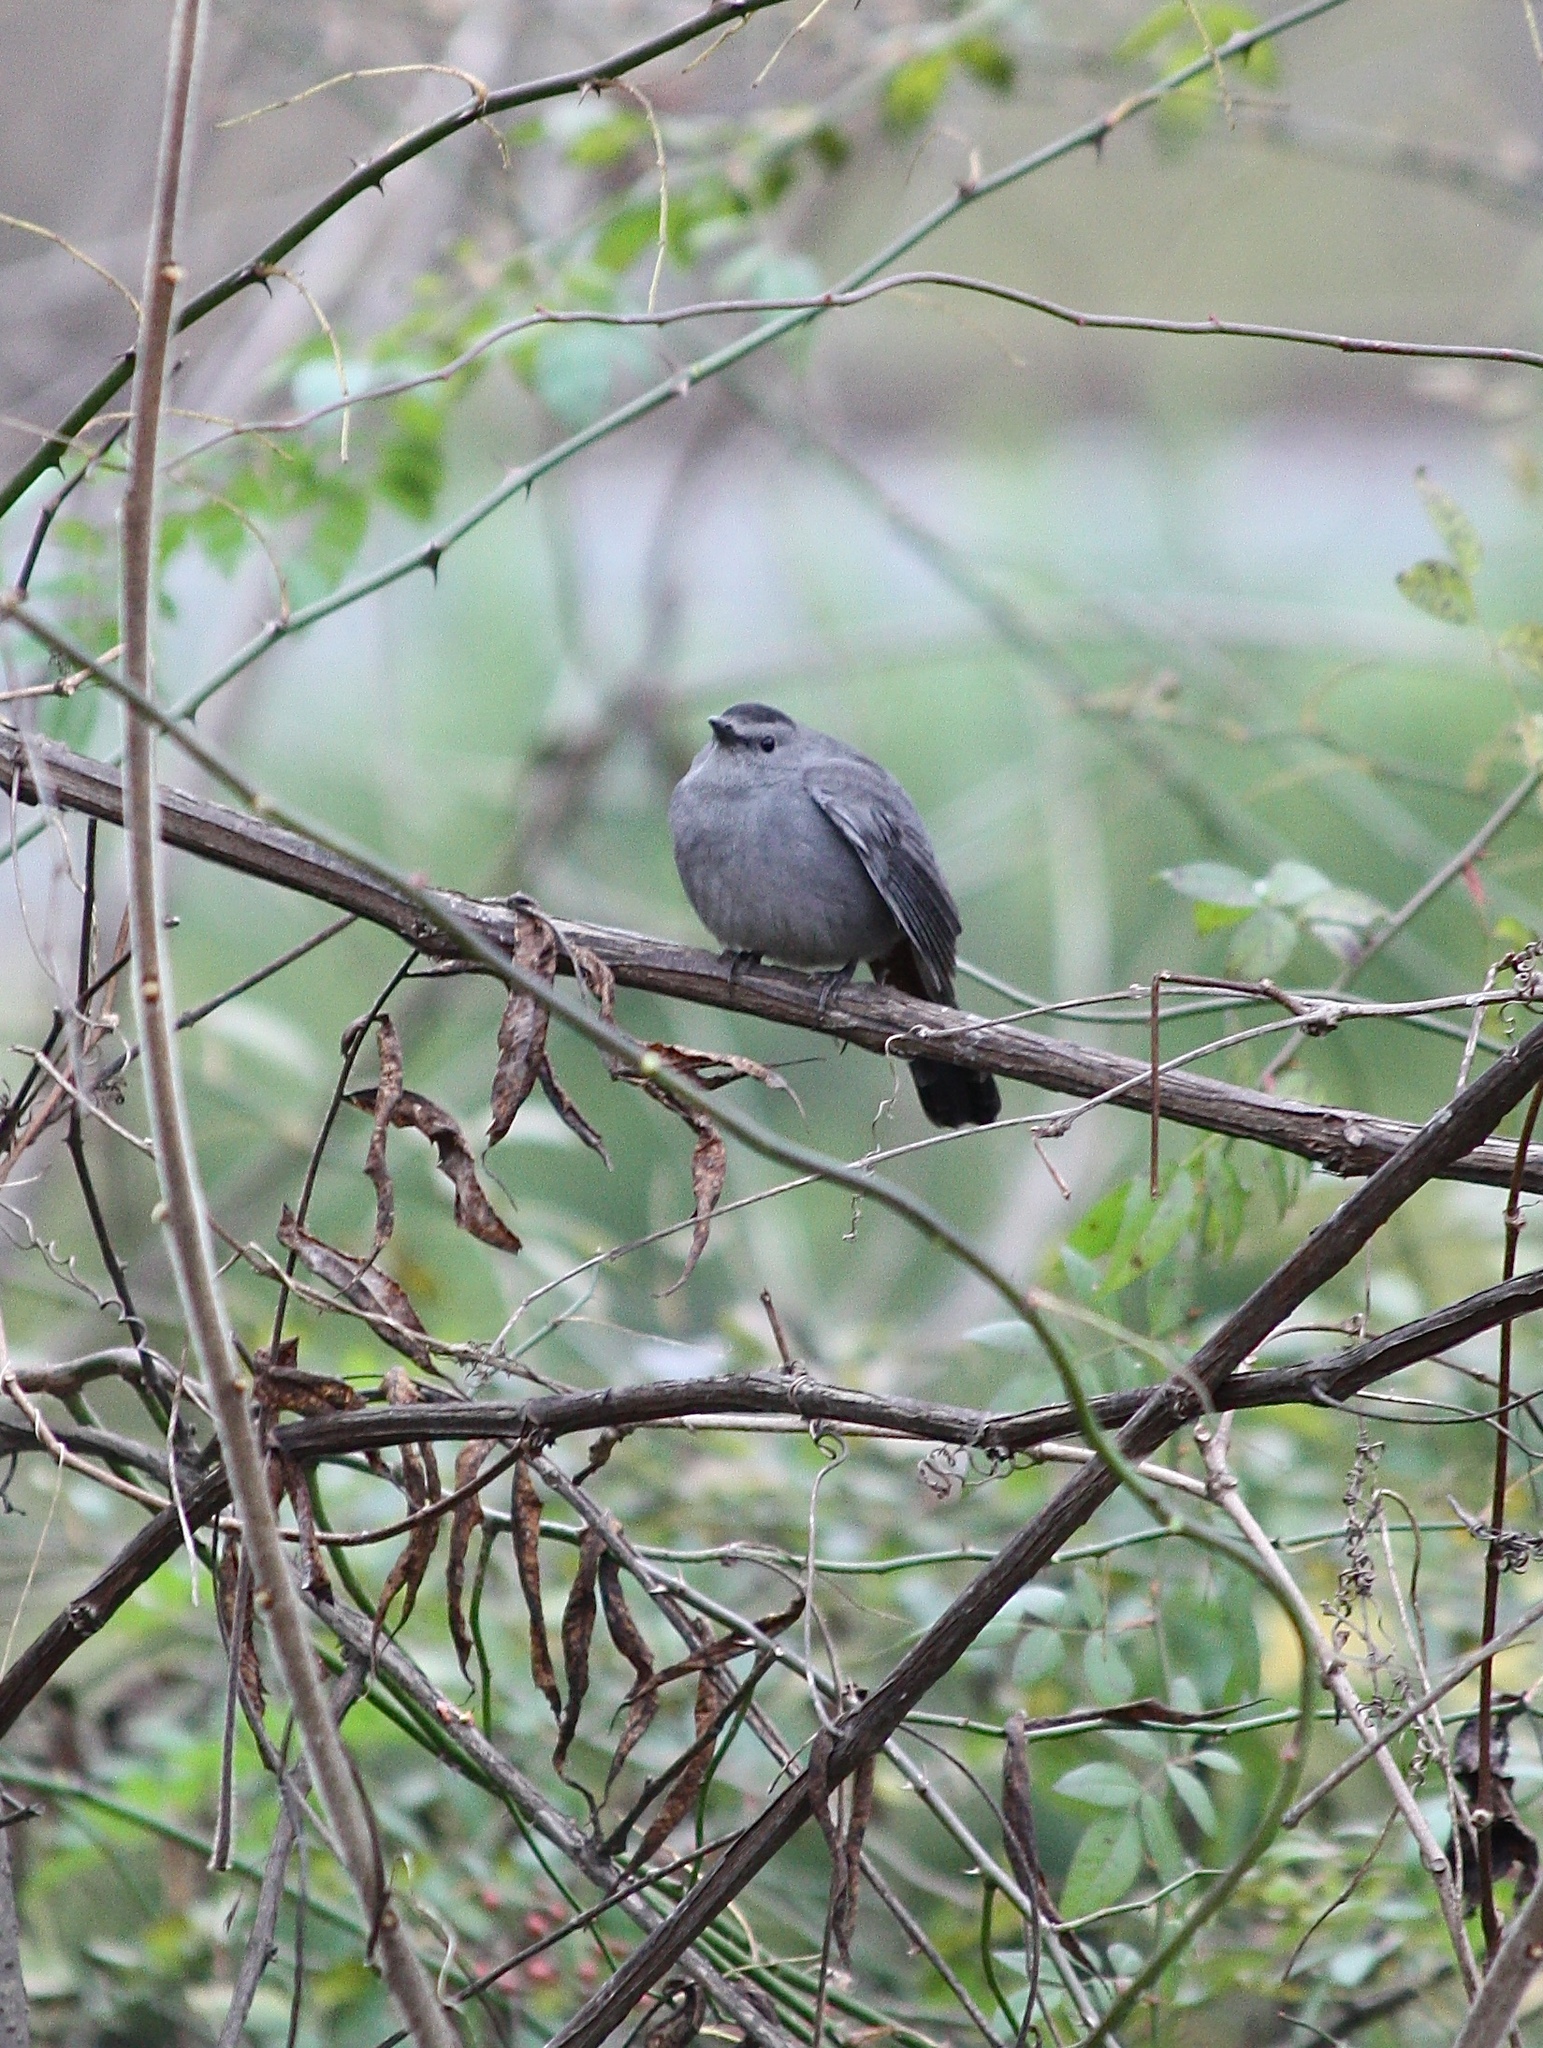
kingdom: Animalia
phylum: Chordata
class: Aves
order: Passeriformes
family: Mimidae
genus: Dumetella
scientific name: Dumetella carolinensis
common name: Gray catbird
